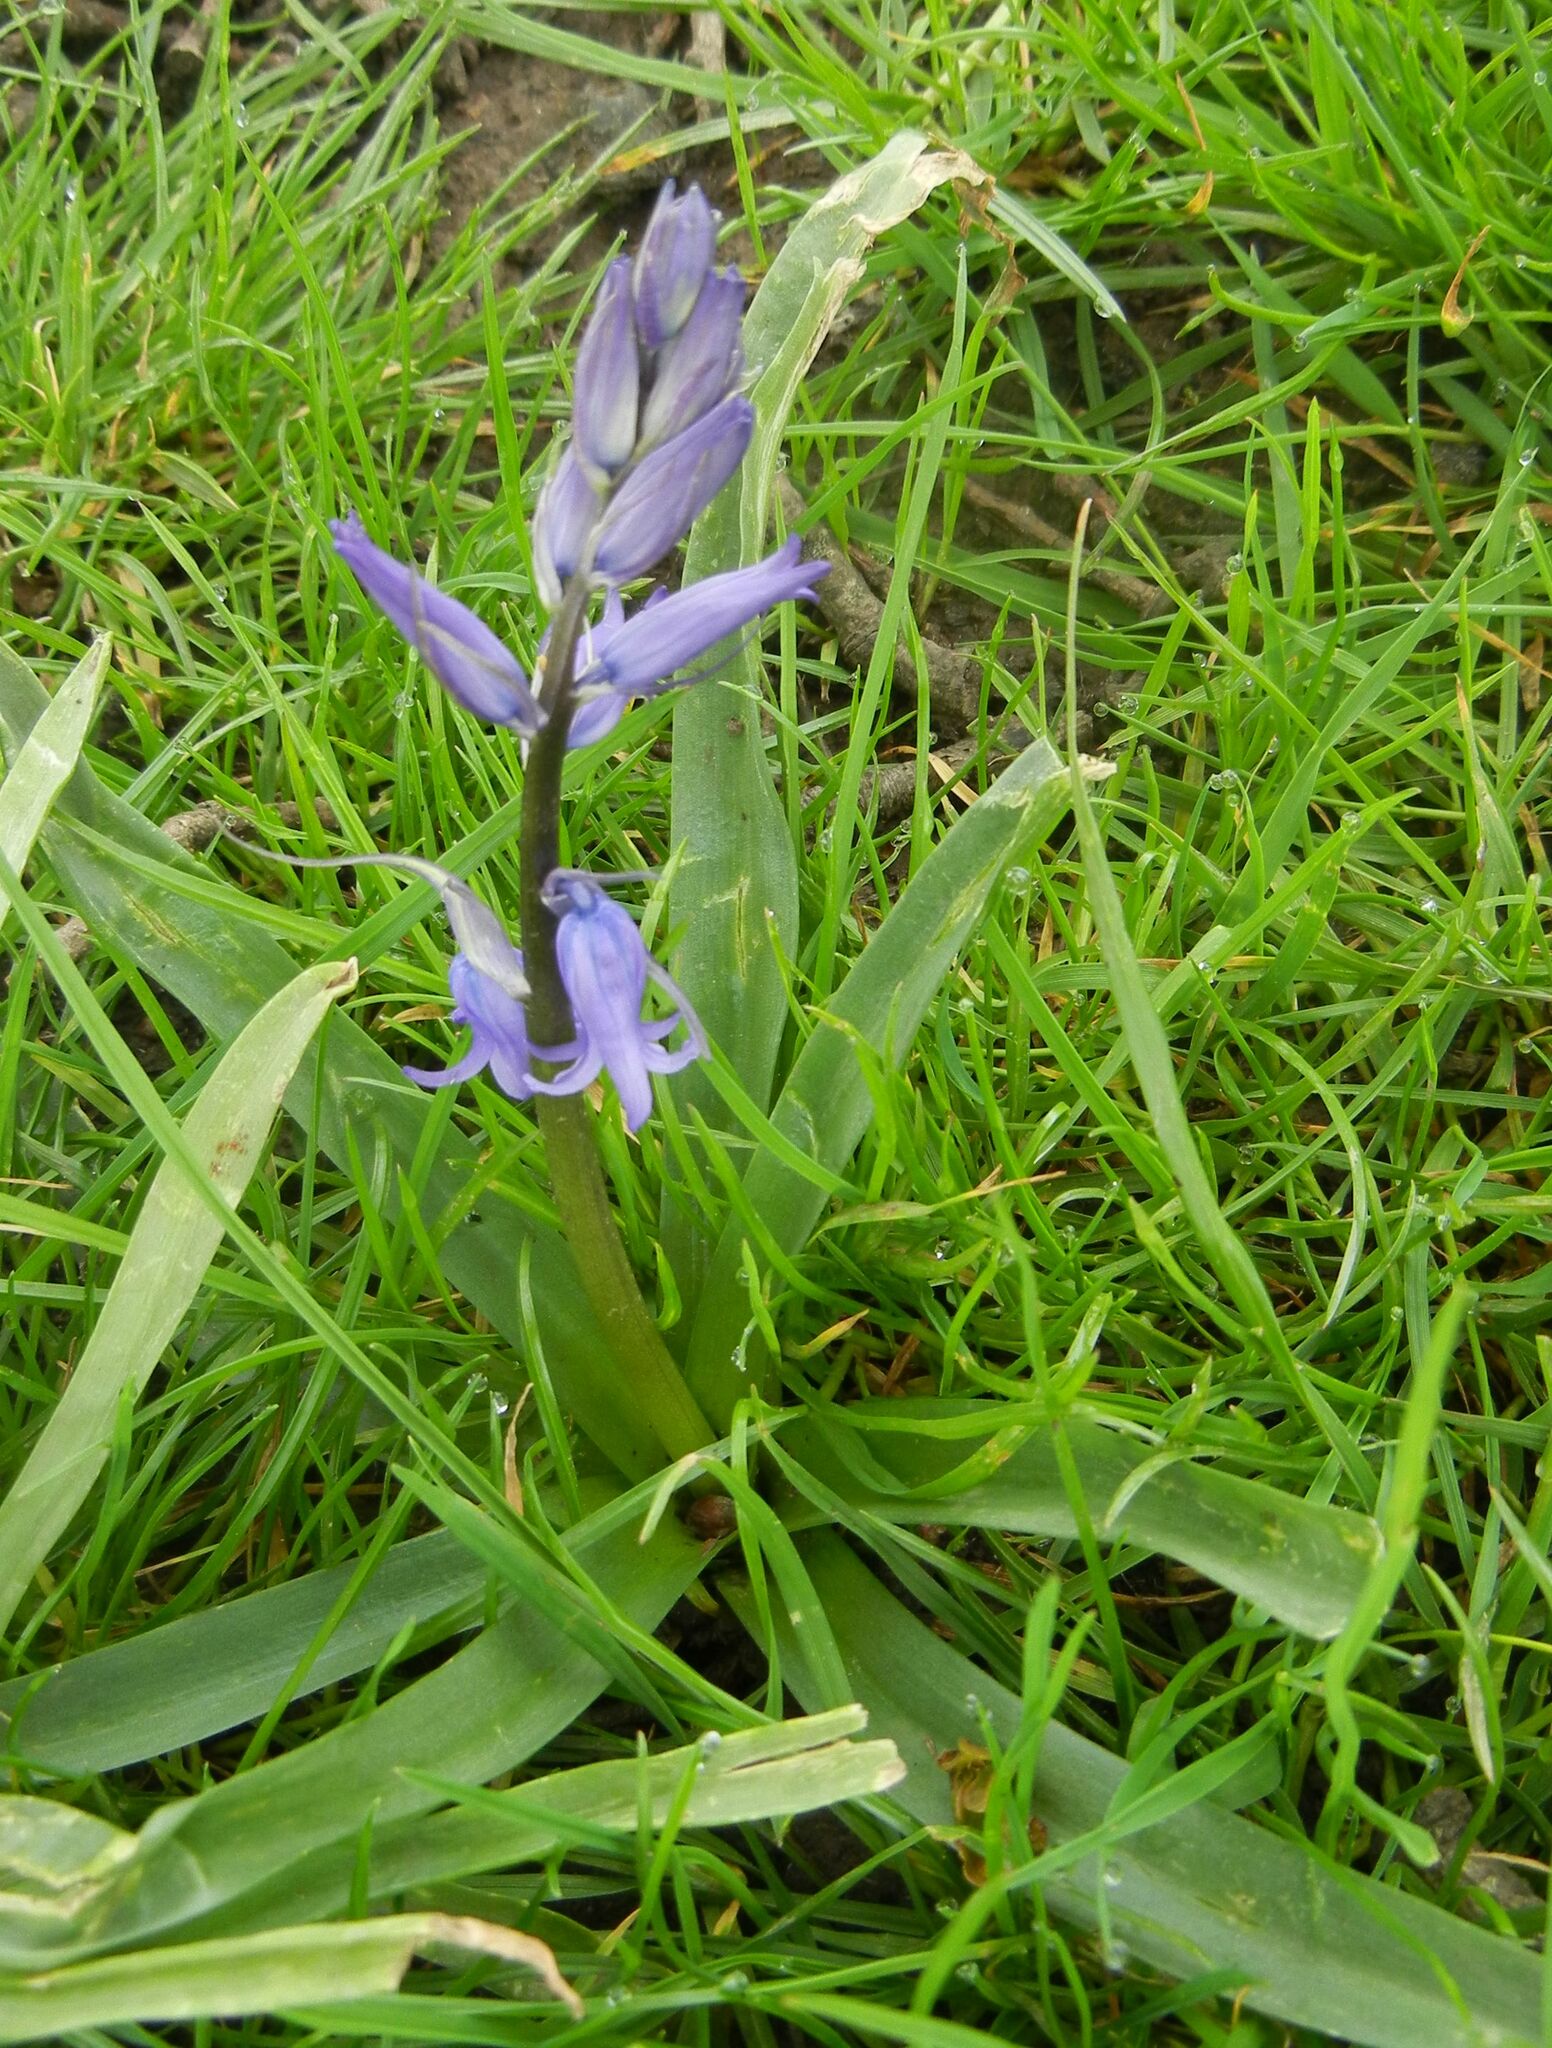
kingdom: Plantae
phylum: Tracheophyta
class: Liliopsida
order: Asparagales
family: Asparagaceae
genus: Hyacinthoides
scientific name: Hyacinthoides massartiana
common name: Hyacinthoides
